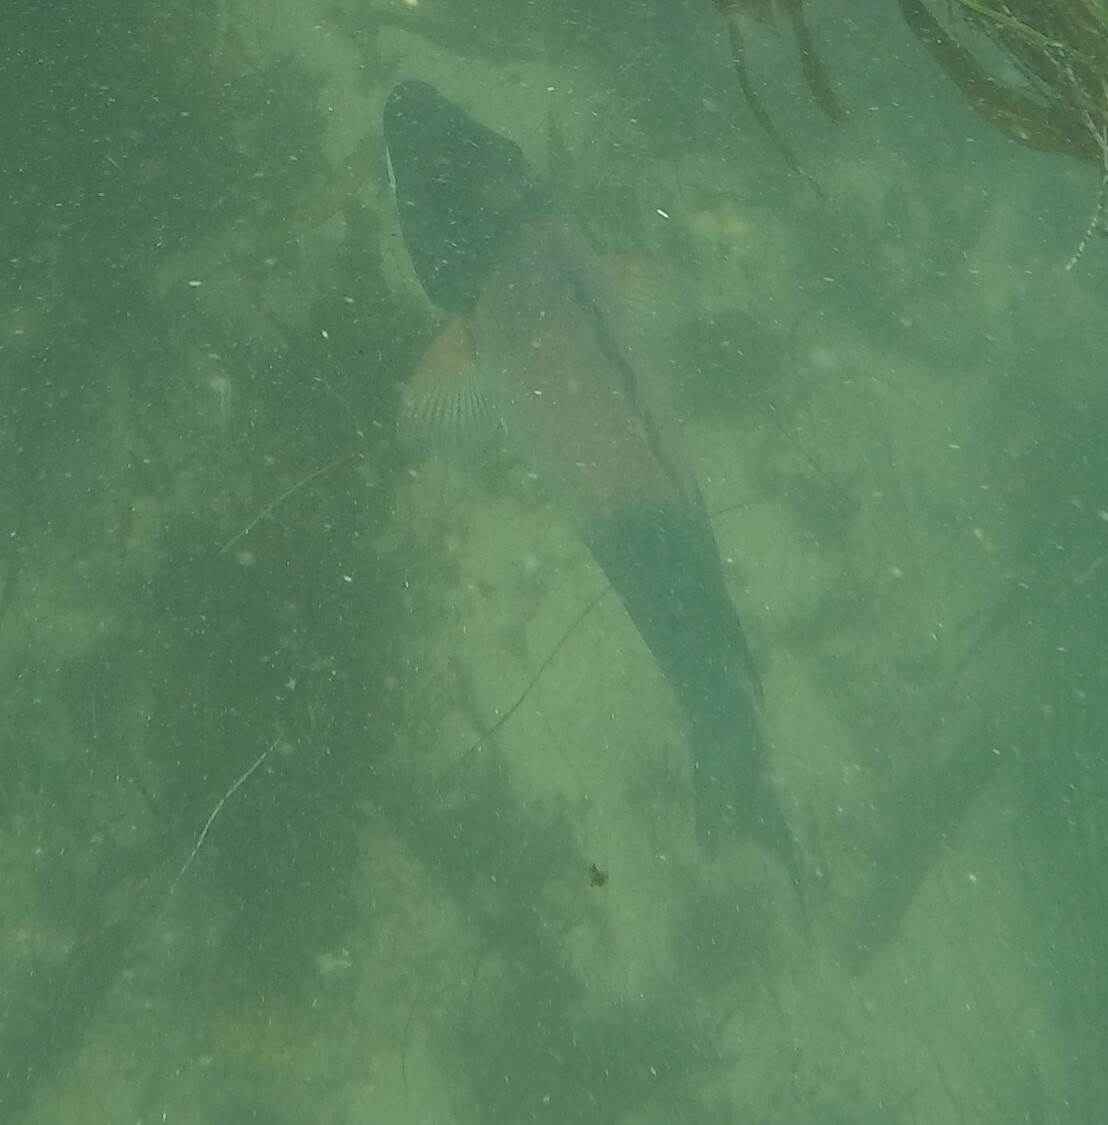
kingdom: Animalia
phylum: Chordata
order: Perciformes
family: Labridae
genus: Semicossyphus
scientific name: Semicossyphus pulcher
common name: California sheephead
